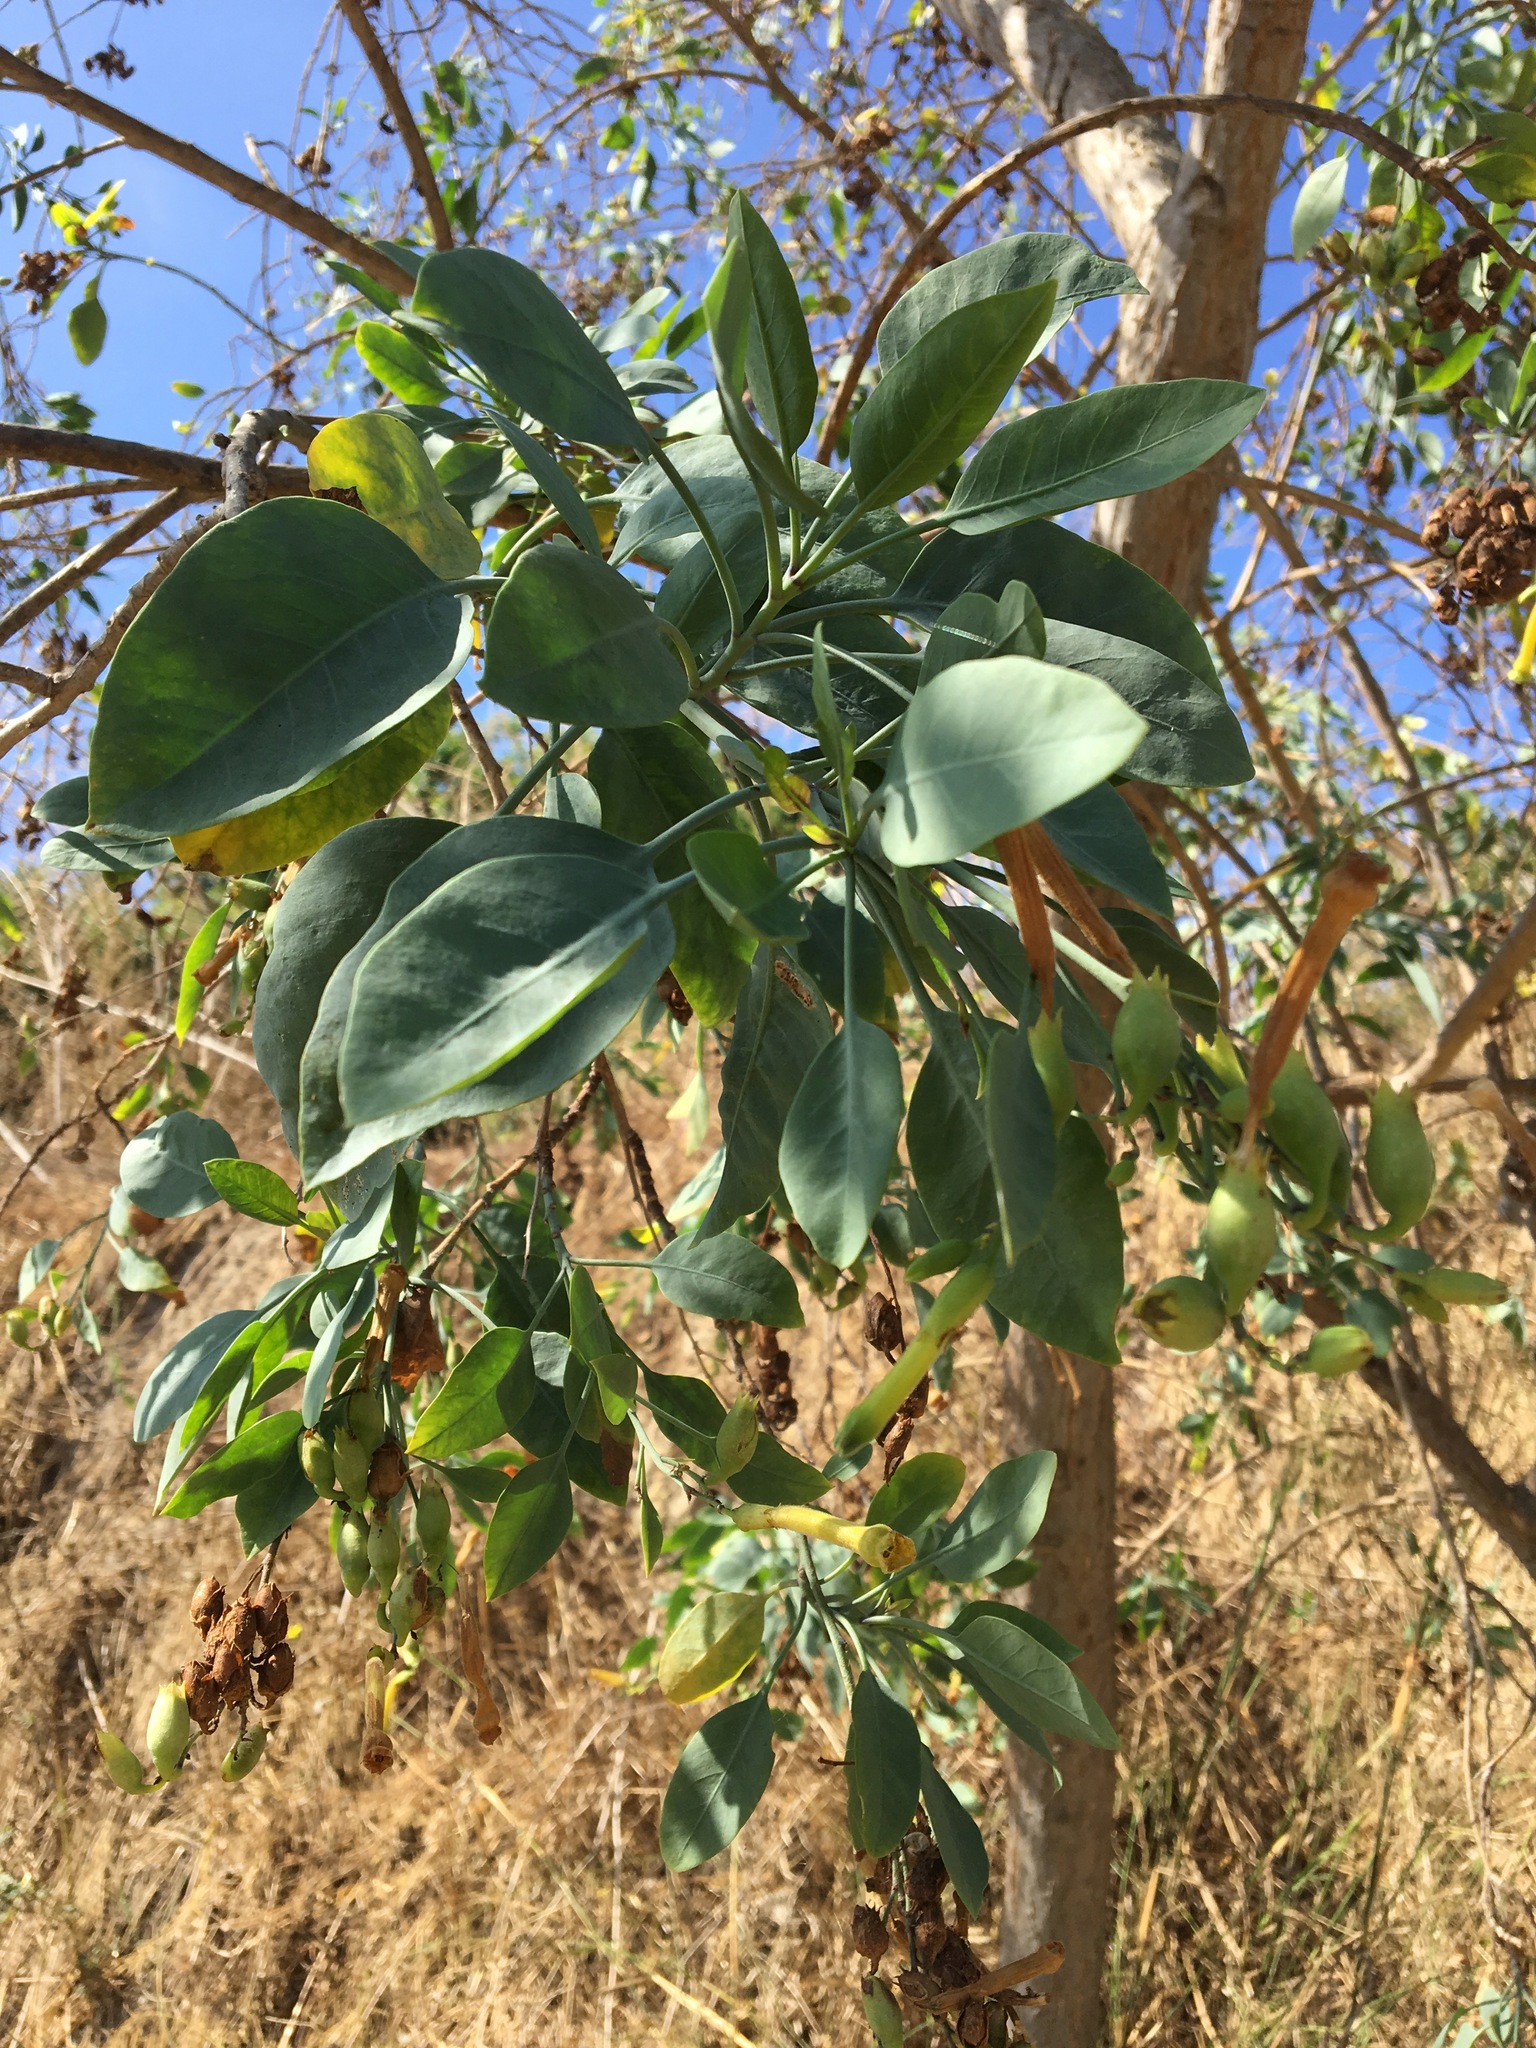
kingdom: Plantae
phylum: Tracheophyta
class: Magnoliopsida
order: Solanales
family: Solanaceae
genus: Nicotiana
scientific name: Nicotiana glauca
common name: Tree tobacco
